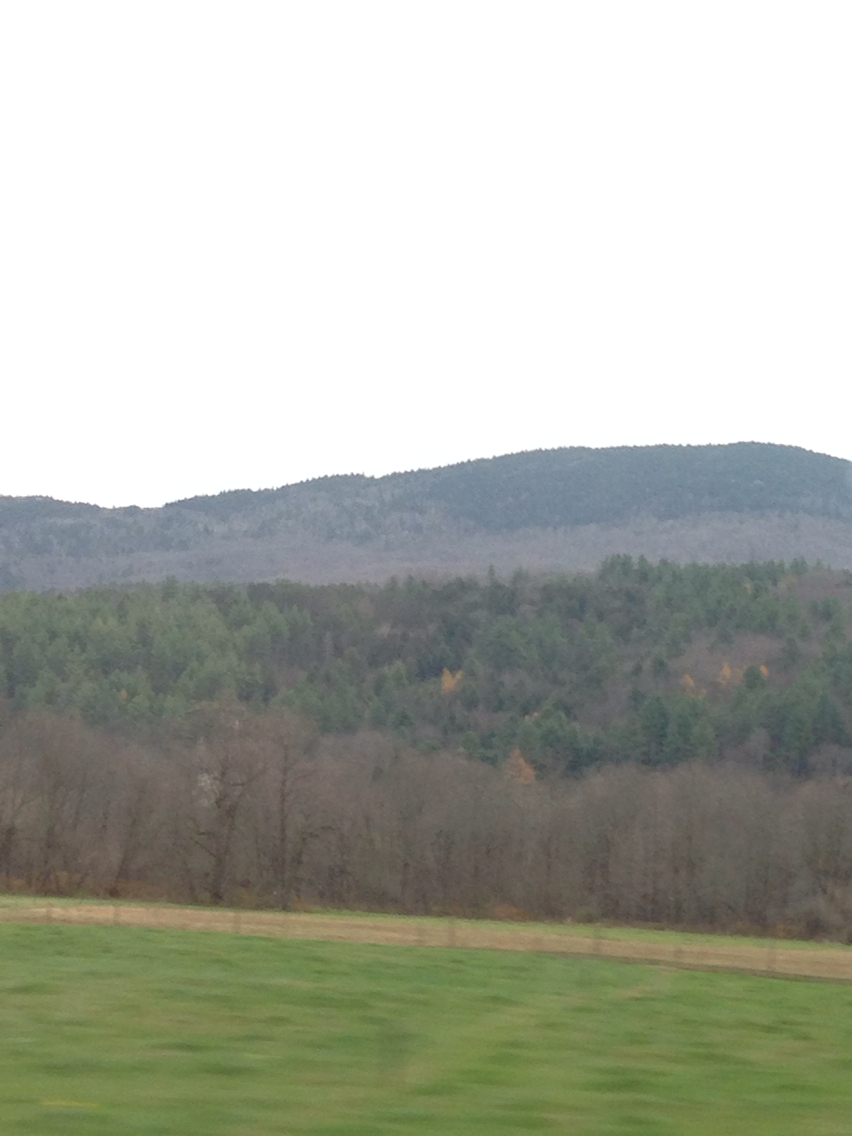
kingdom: Plantae
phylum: Tracheophyta
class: Pinopsida
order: Pinales
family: Pinaceae
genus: Larix
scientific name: Larix laricina
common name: American larch
